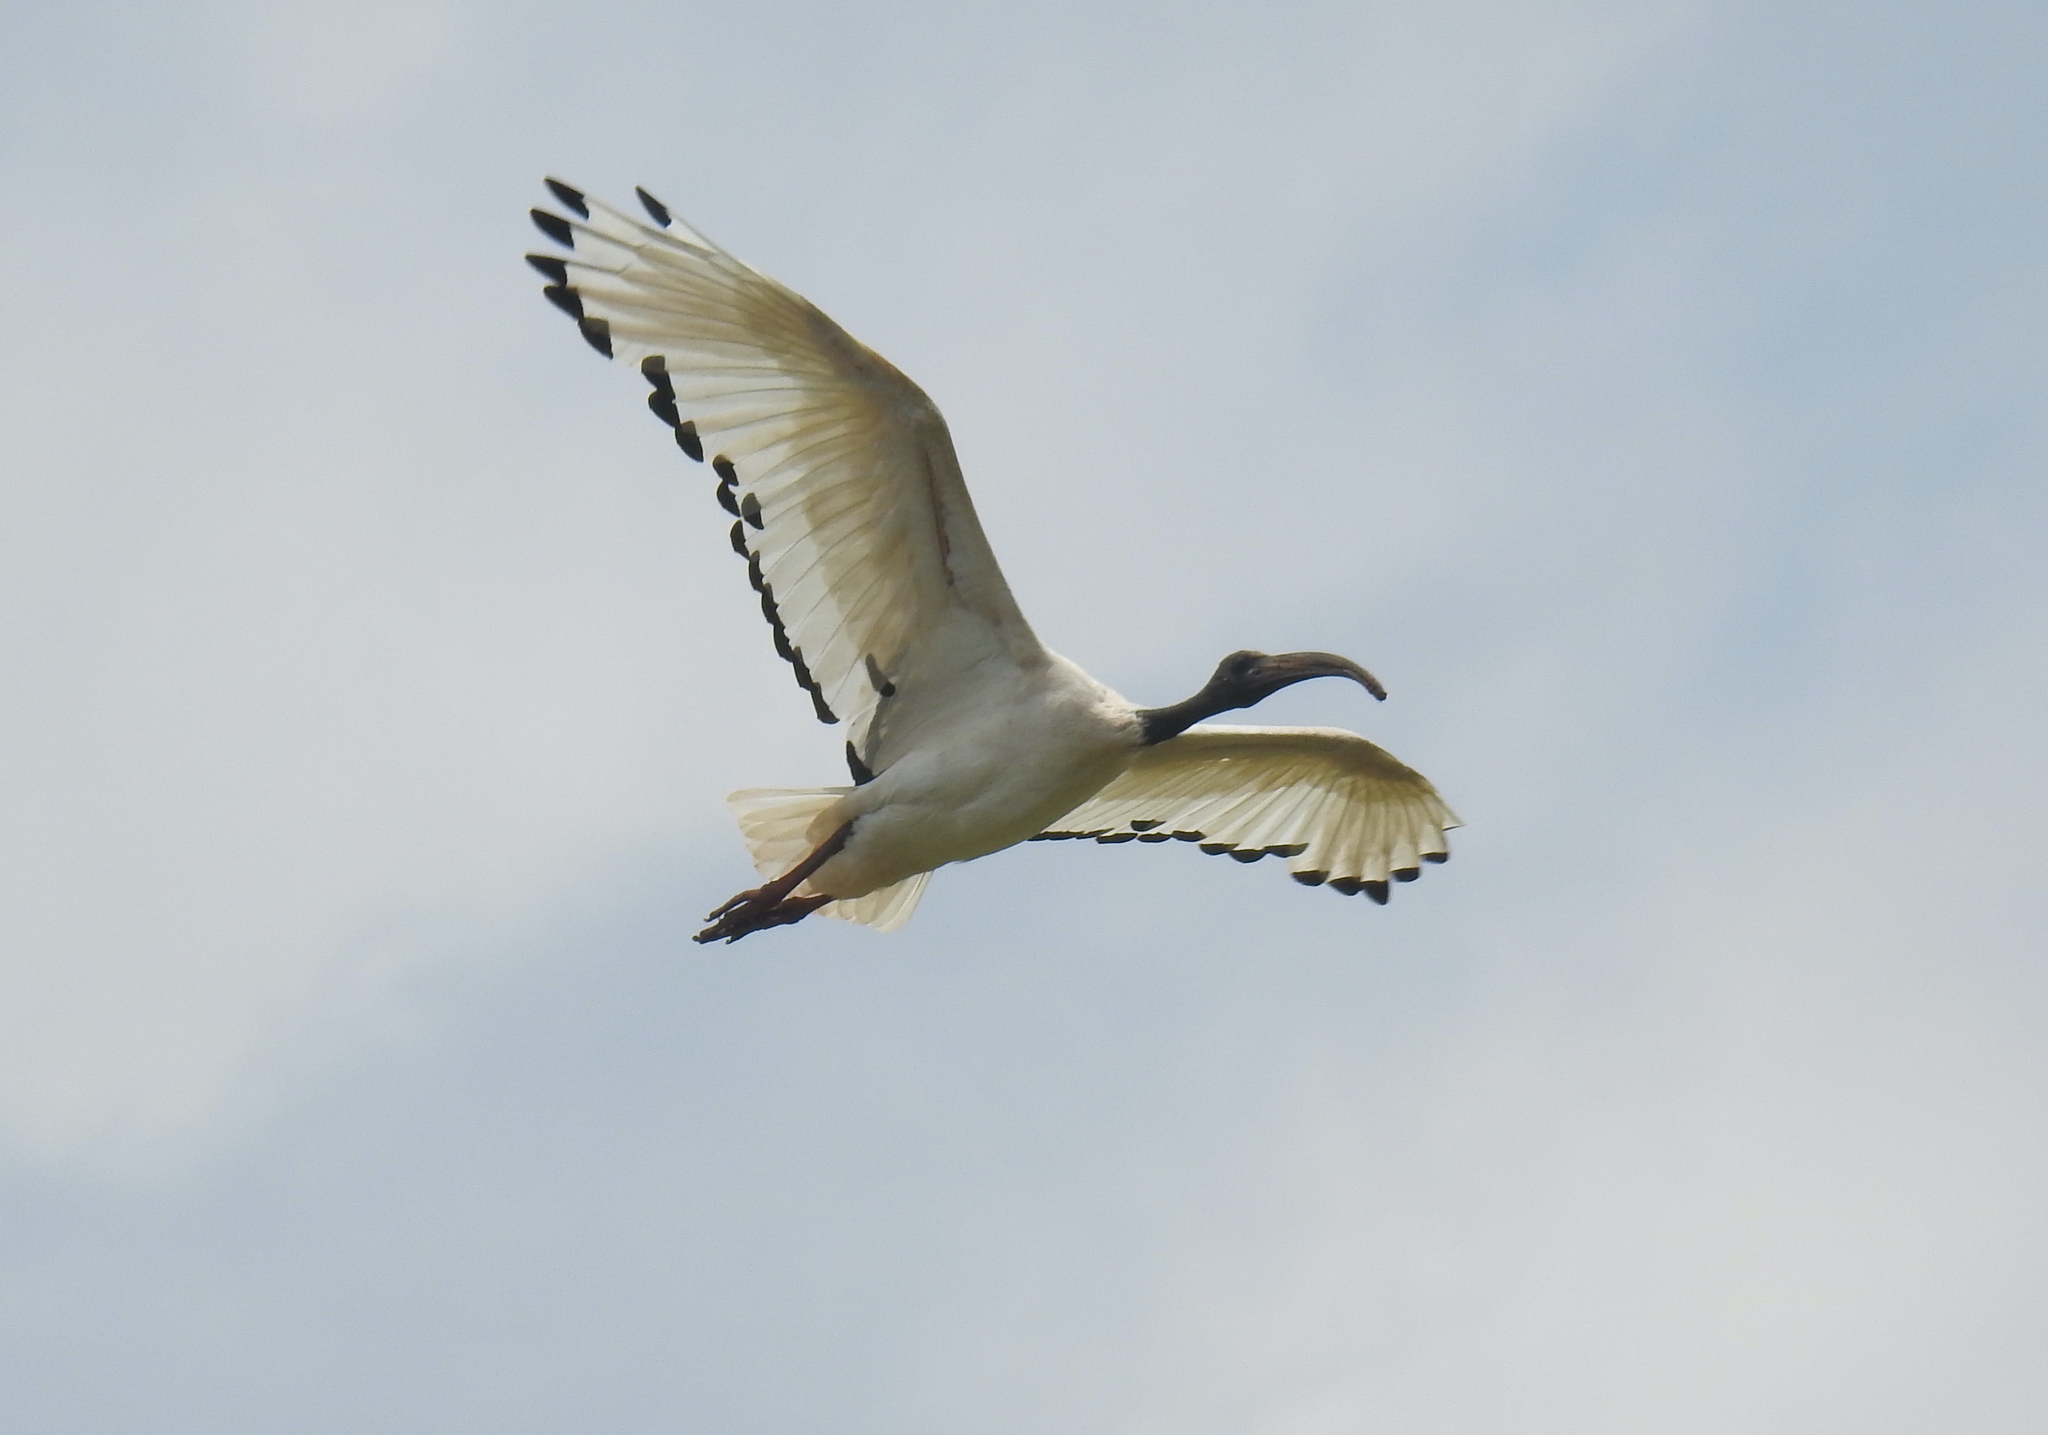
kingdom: Animalia
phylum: Chordata
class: Aves
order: Pelecaniformes
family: Threskiornithidae
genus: Threskiornis
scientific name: Threskiornis aethiopicus
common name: Sacred ibis
